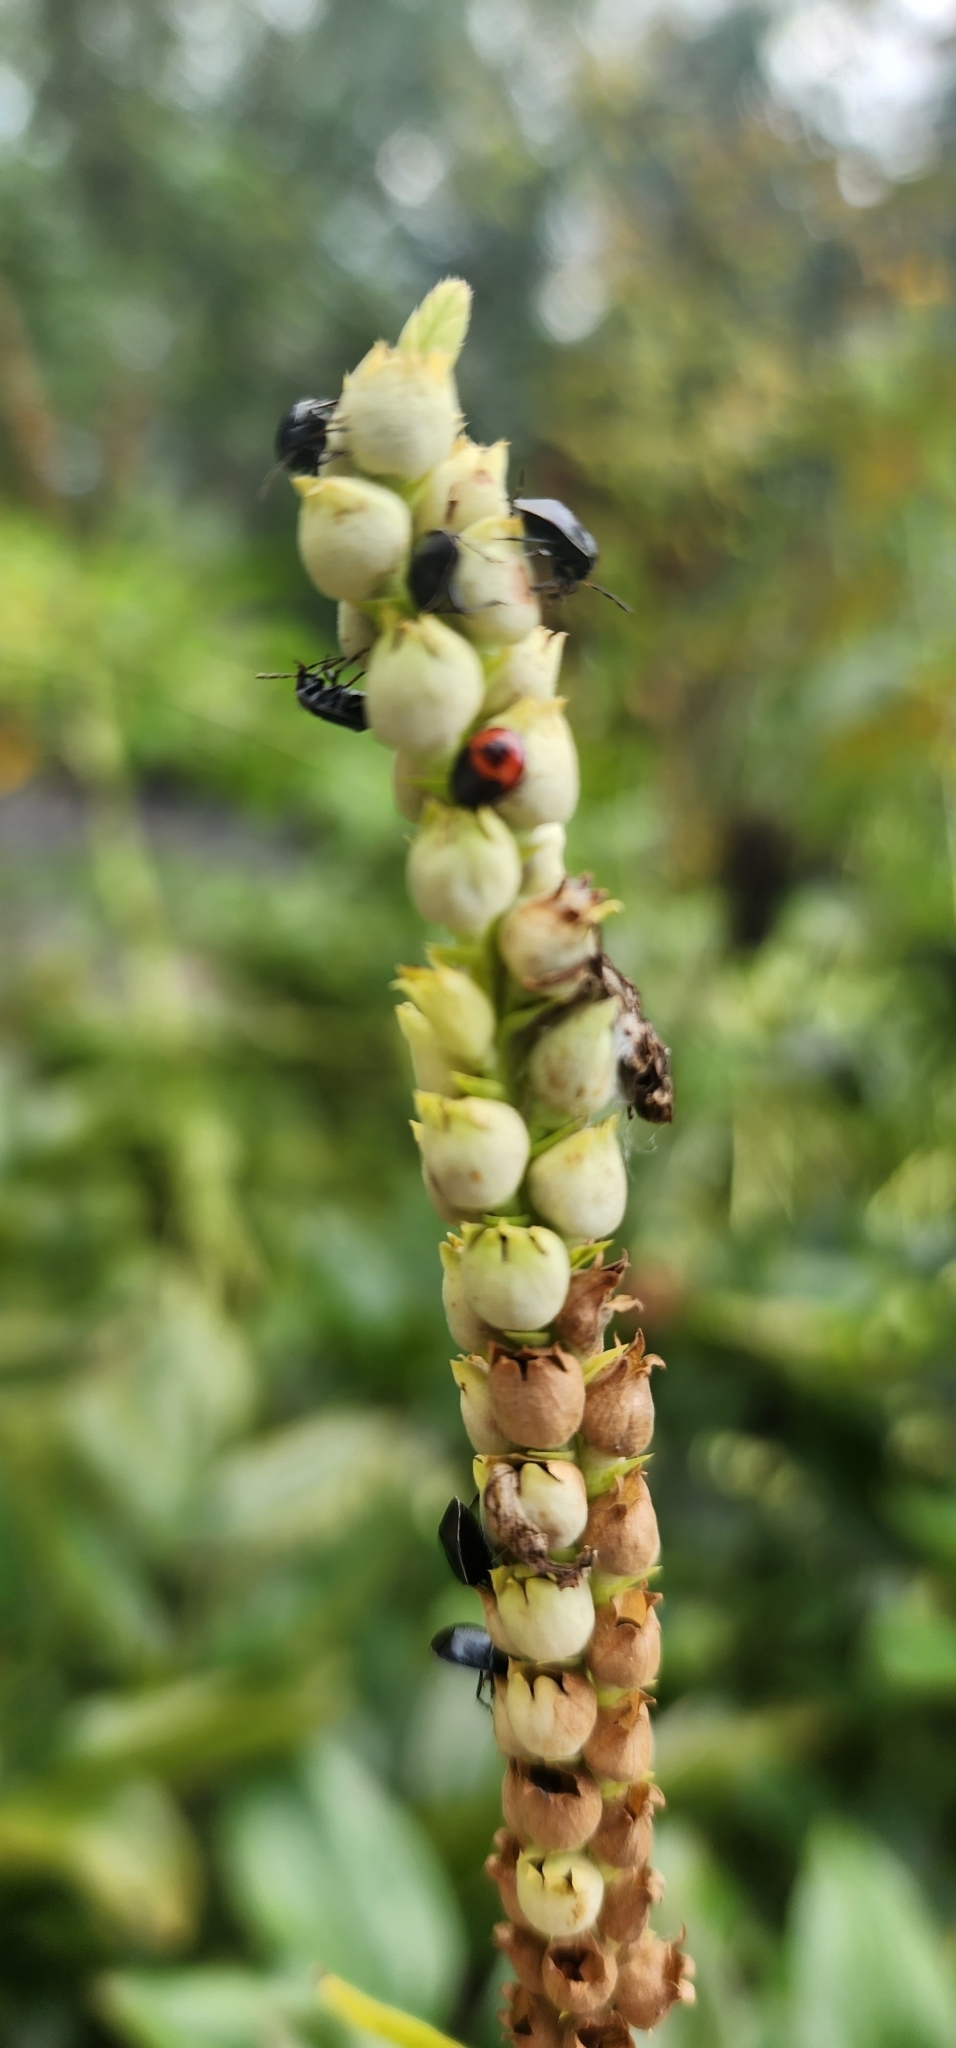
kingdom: Animalia
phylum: Arthropoda
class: Insecta
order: Hemiptera
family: Cydnidae
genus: Sehirus
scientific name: Sehirus cinctus
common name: White-margined burrower bug
